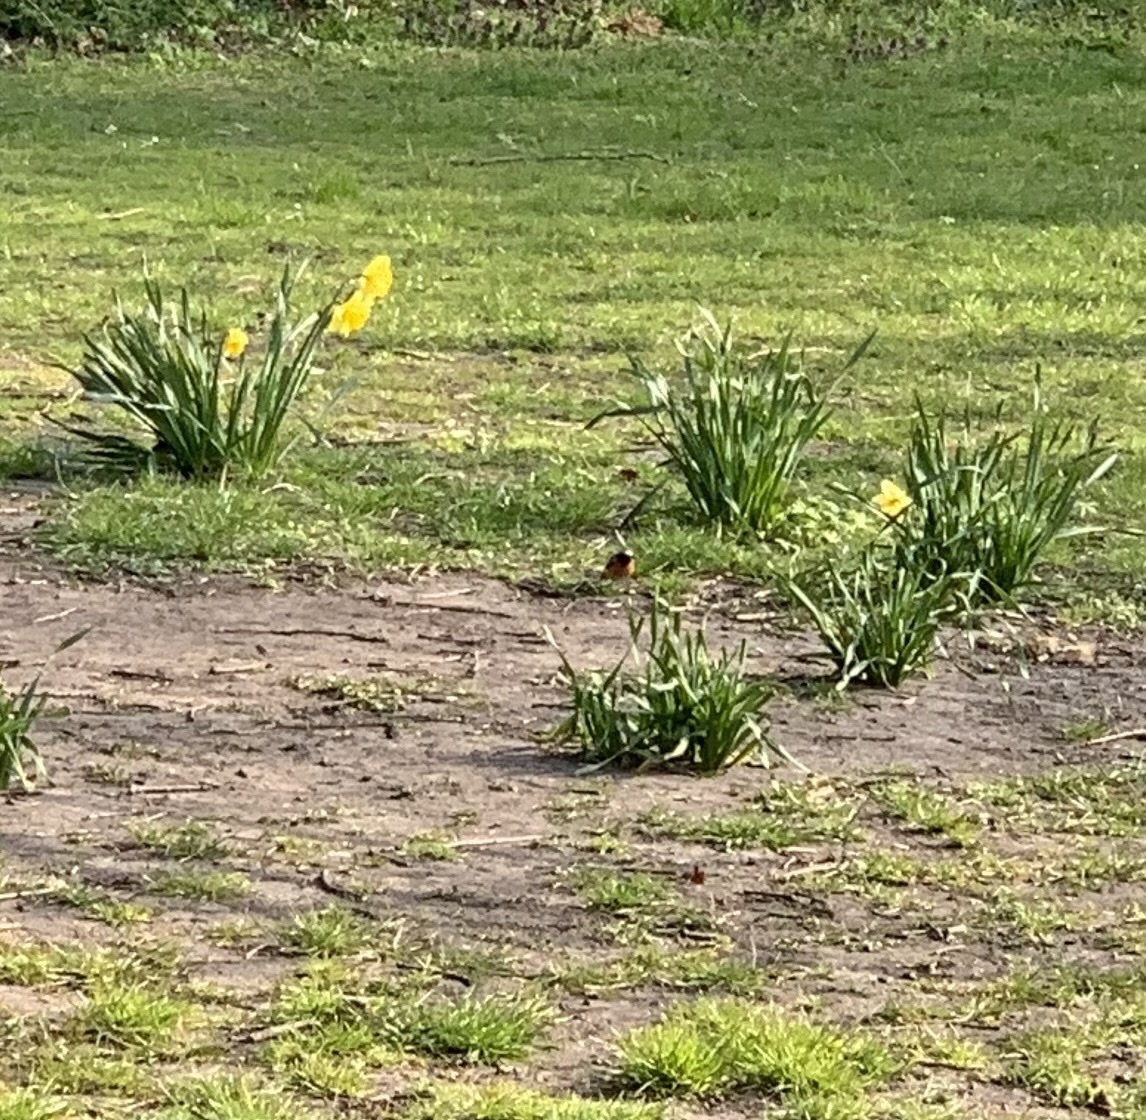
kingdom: Animalia
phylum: Chordata
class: Aves
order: Passeriformes
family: Muscicapidae
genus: Phoenicurus
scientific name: Phoenicurus phoenicurus
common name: Common redstart
